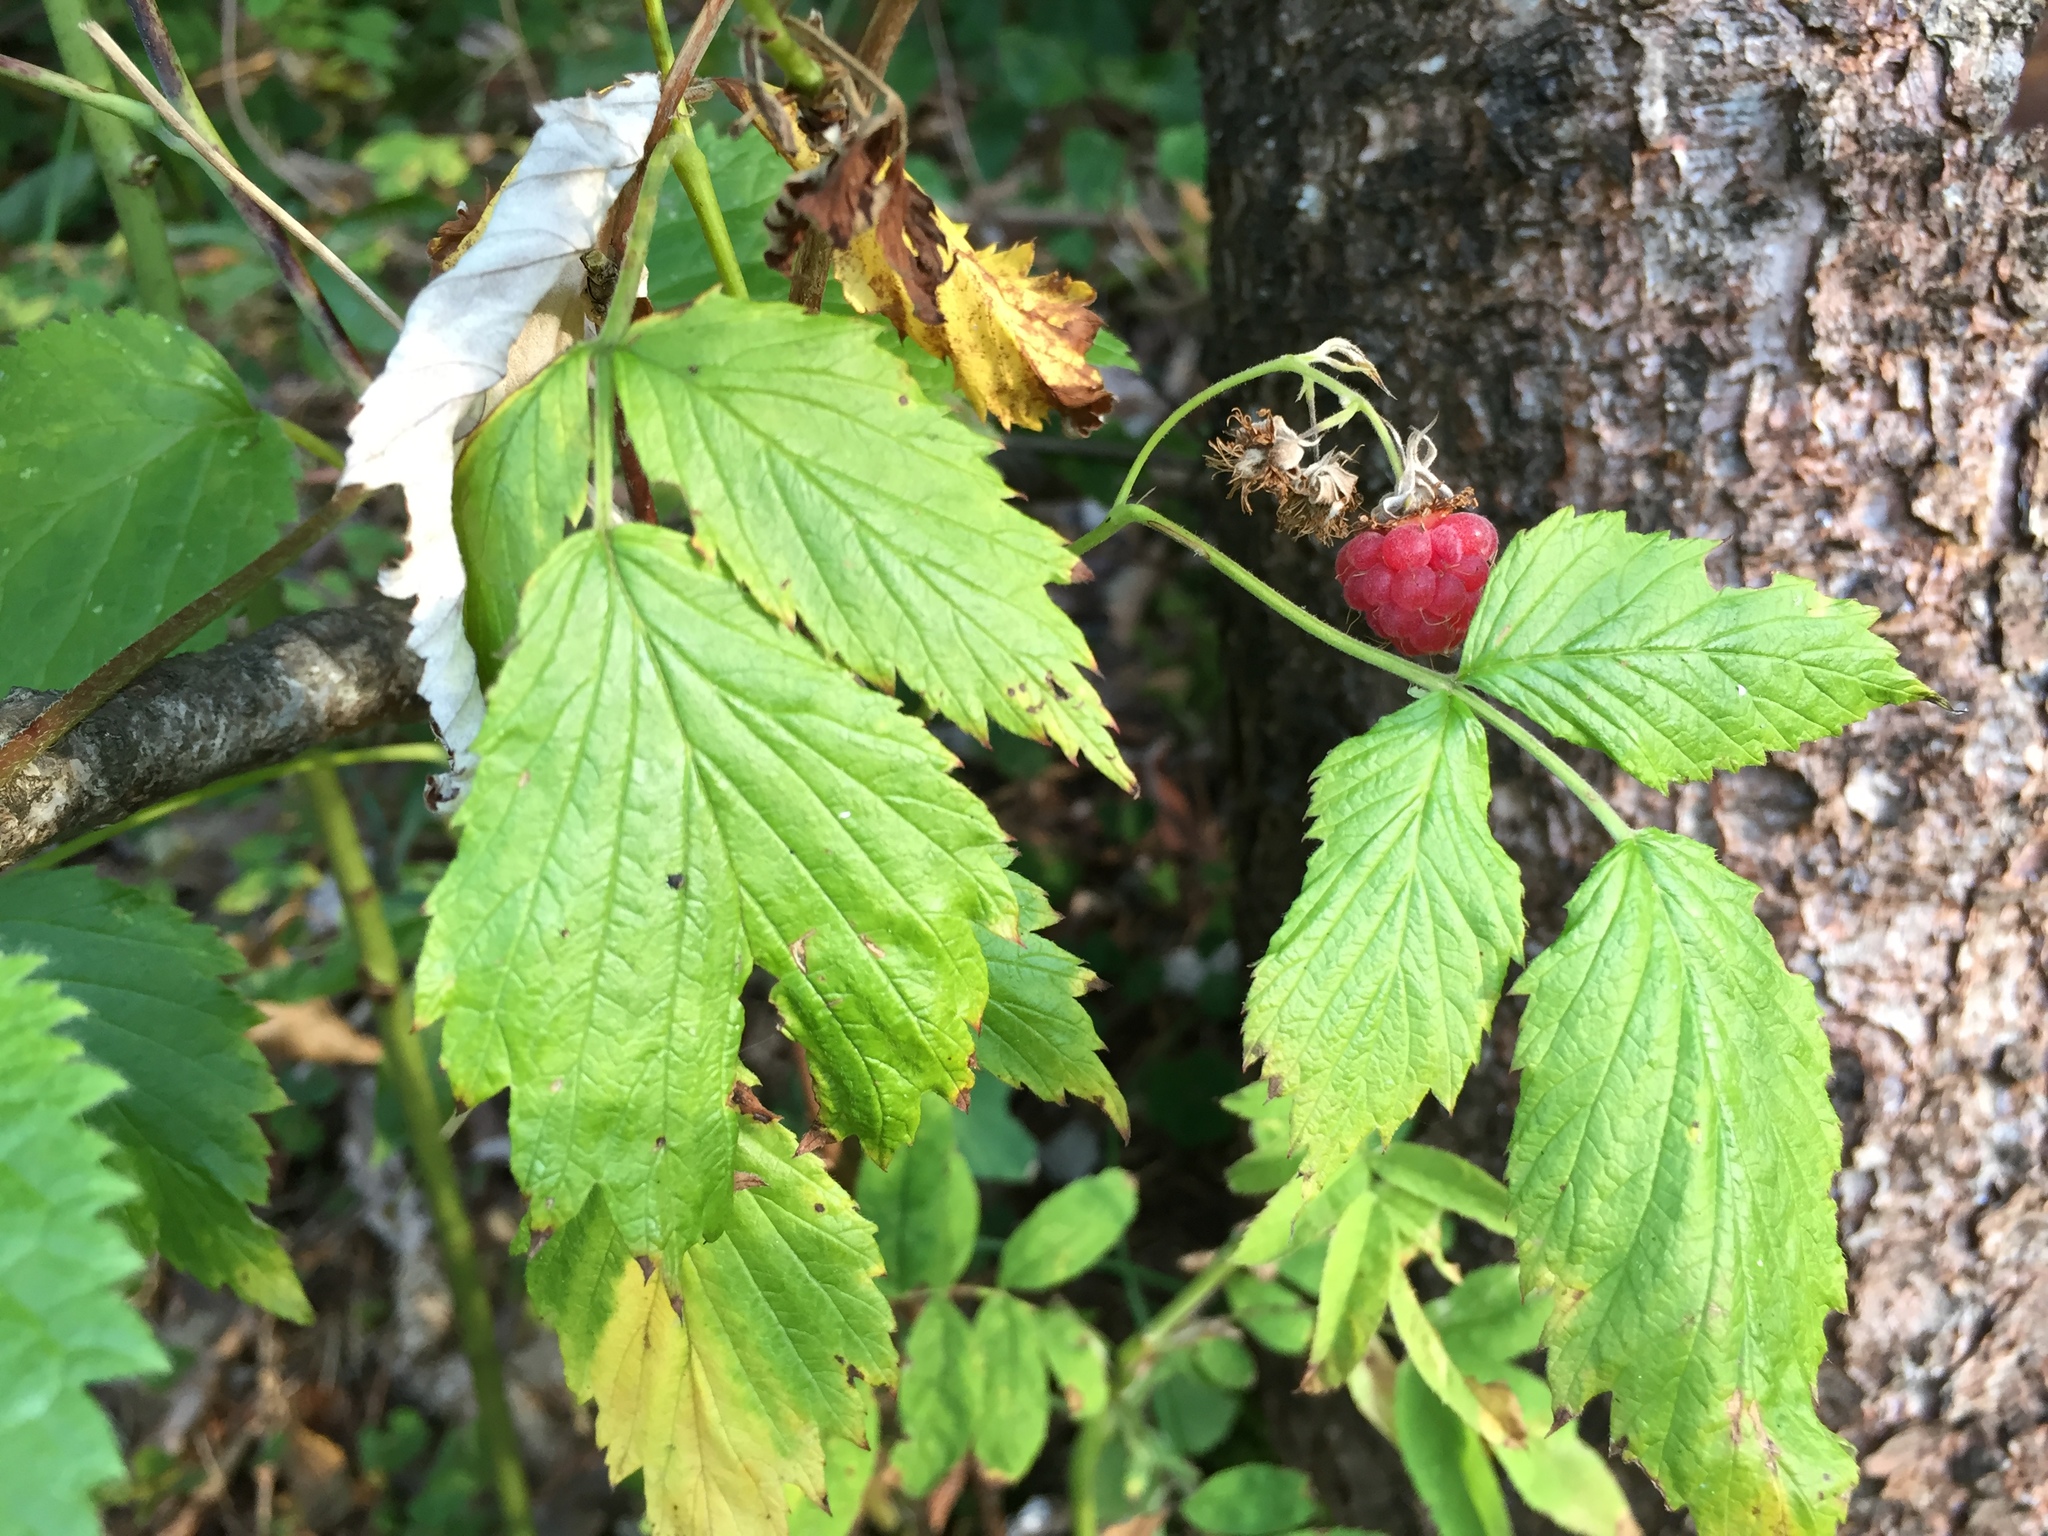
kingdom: Plantae
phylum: Tracheophyta
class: Magnoliopsida
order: Rosales
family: Rosaceae
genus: Rubus
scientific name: Rubus idaeus
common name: Raspberry
